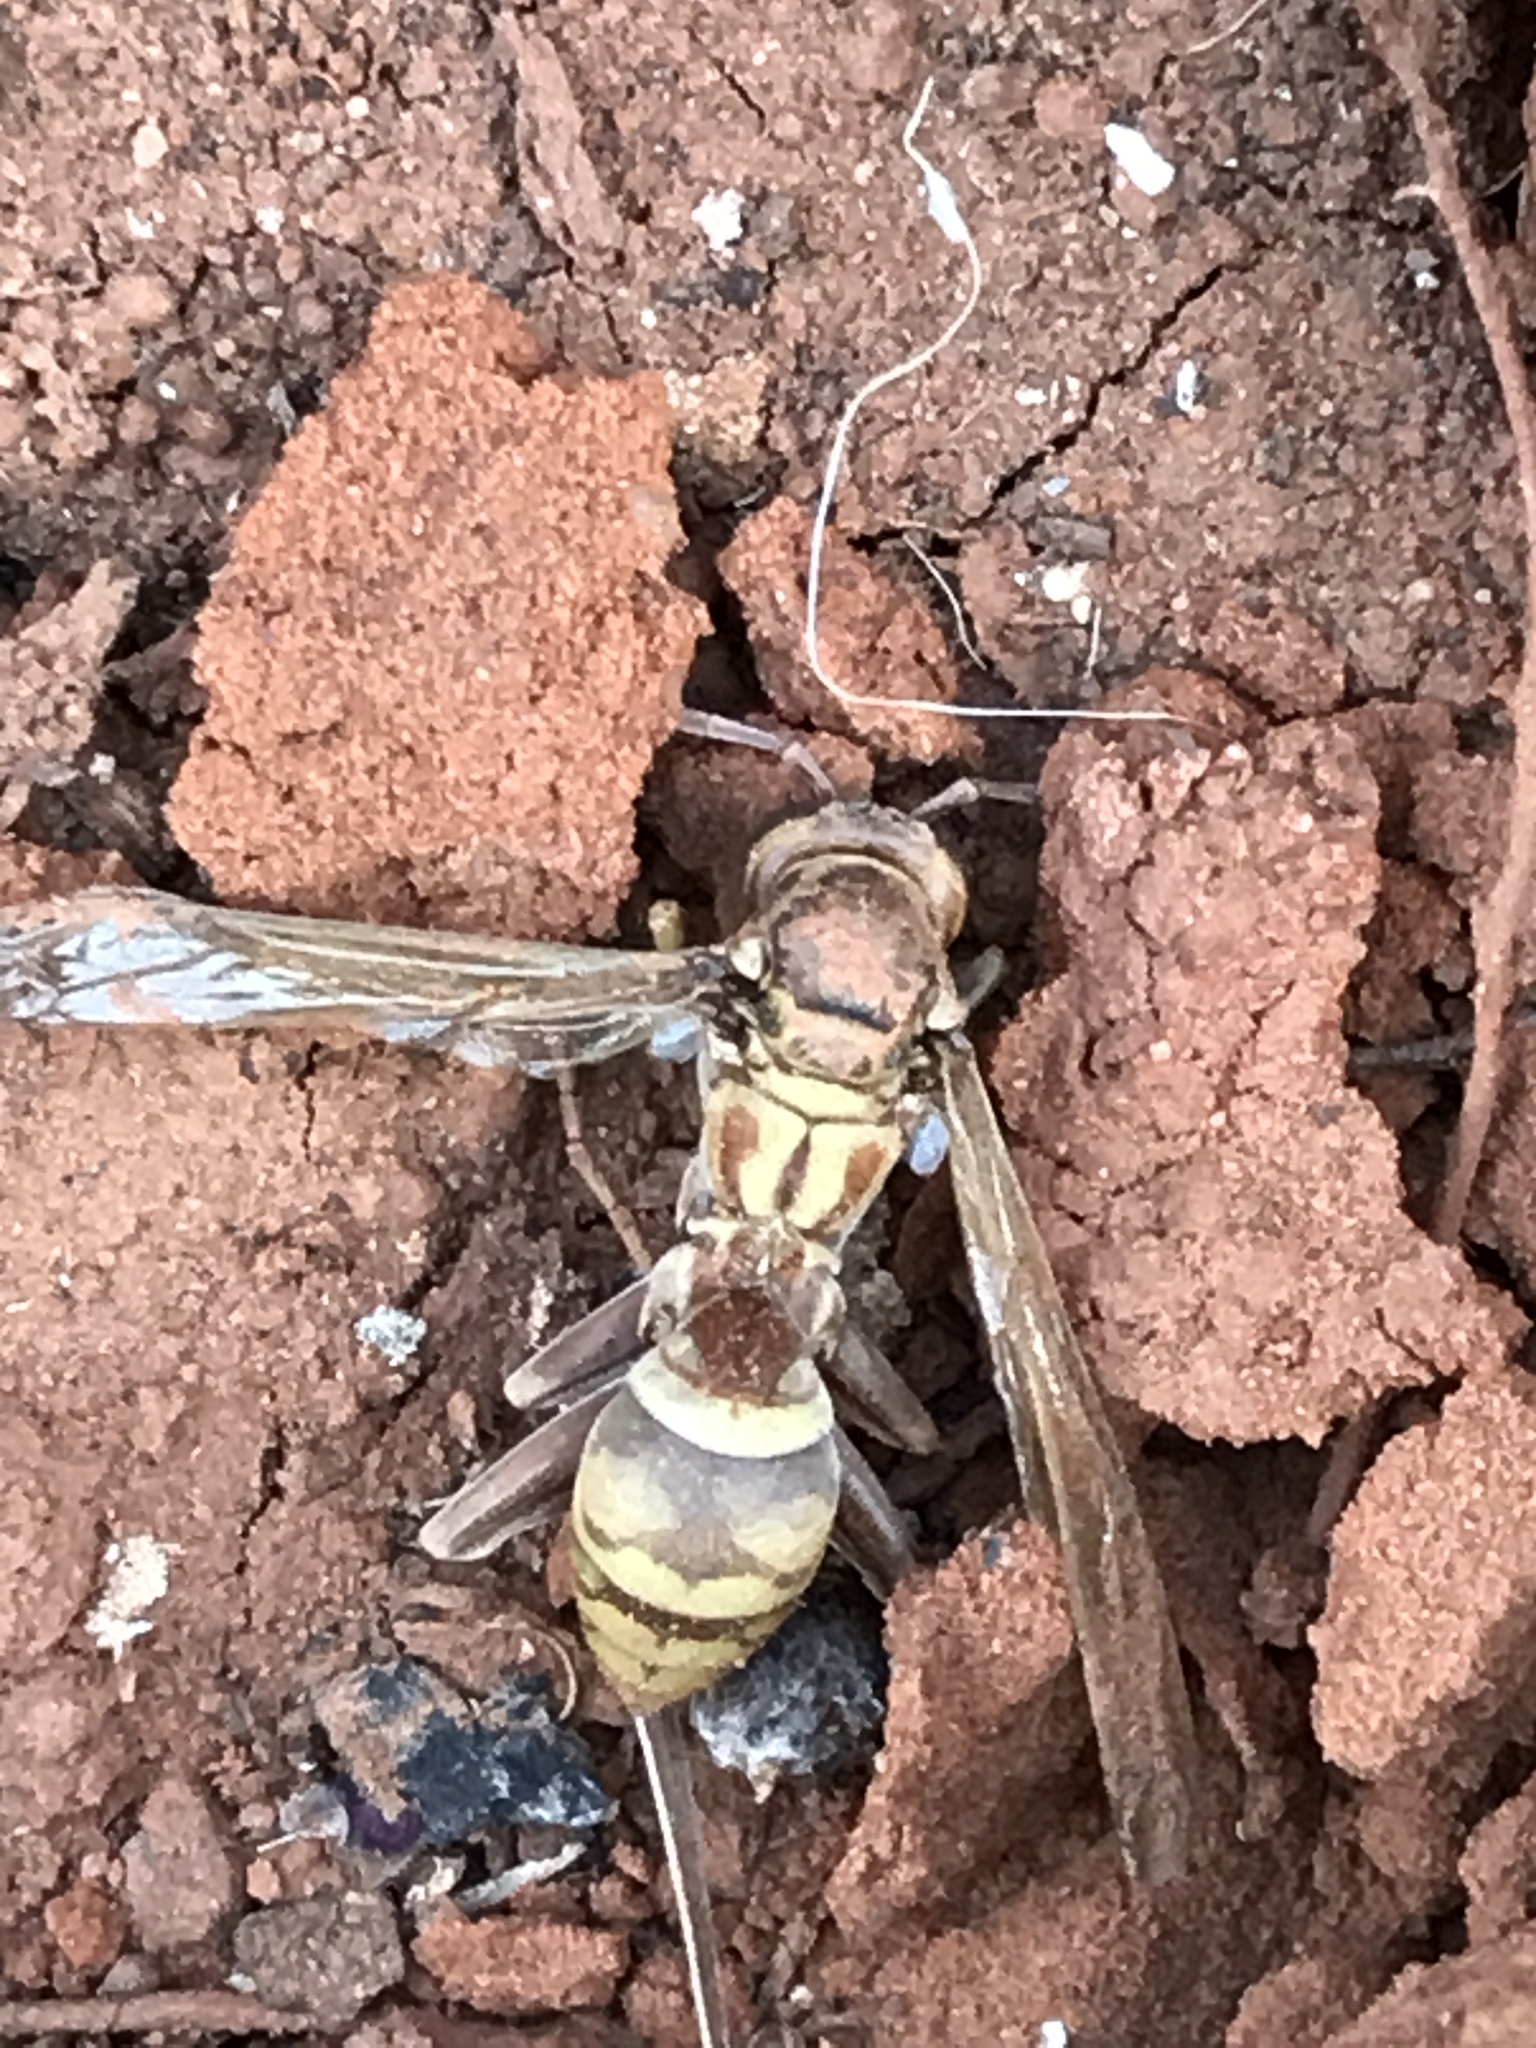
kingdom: Animalia
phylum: Arthropoda
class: Insecta
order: Hymenoptera
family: Eumenidae
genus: Polistes
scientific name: Polistes apachus
